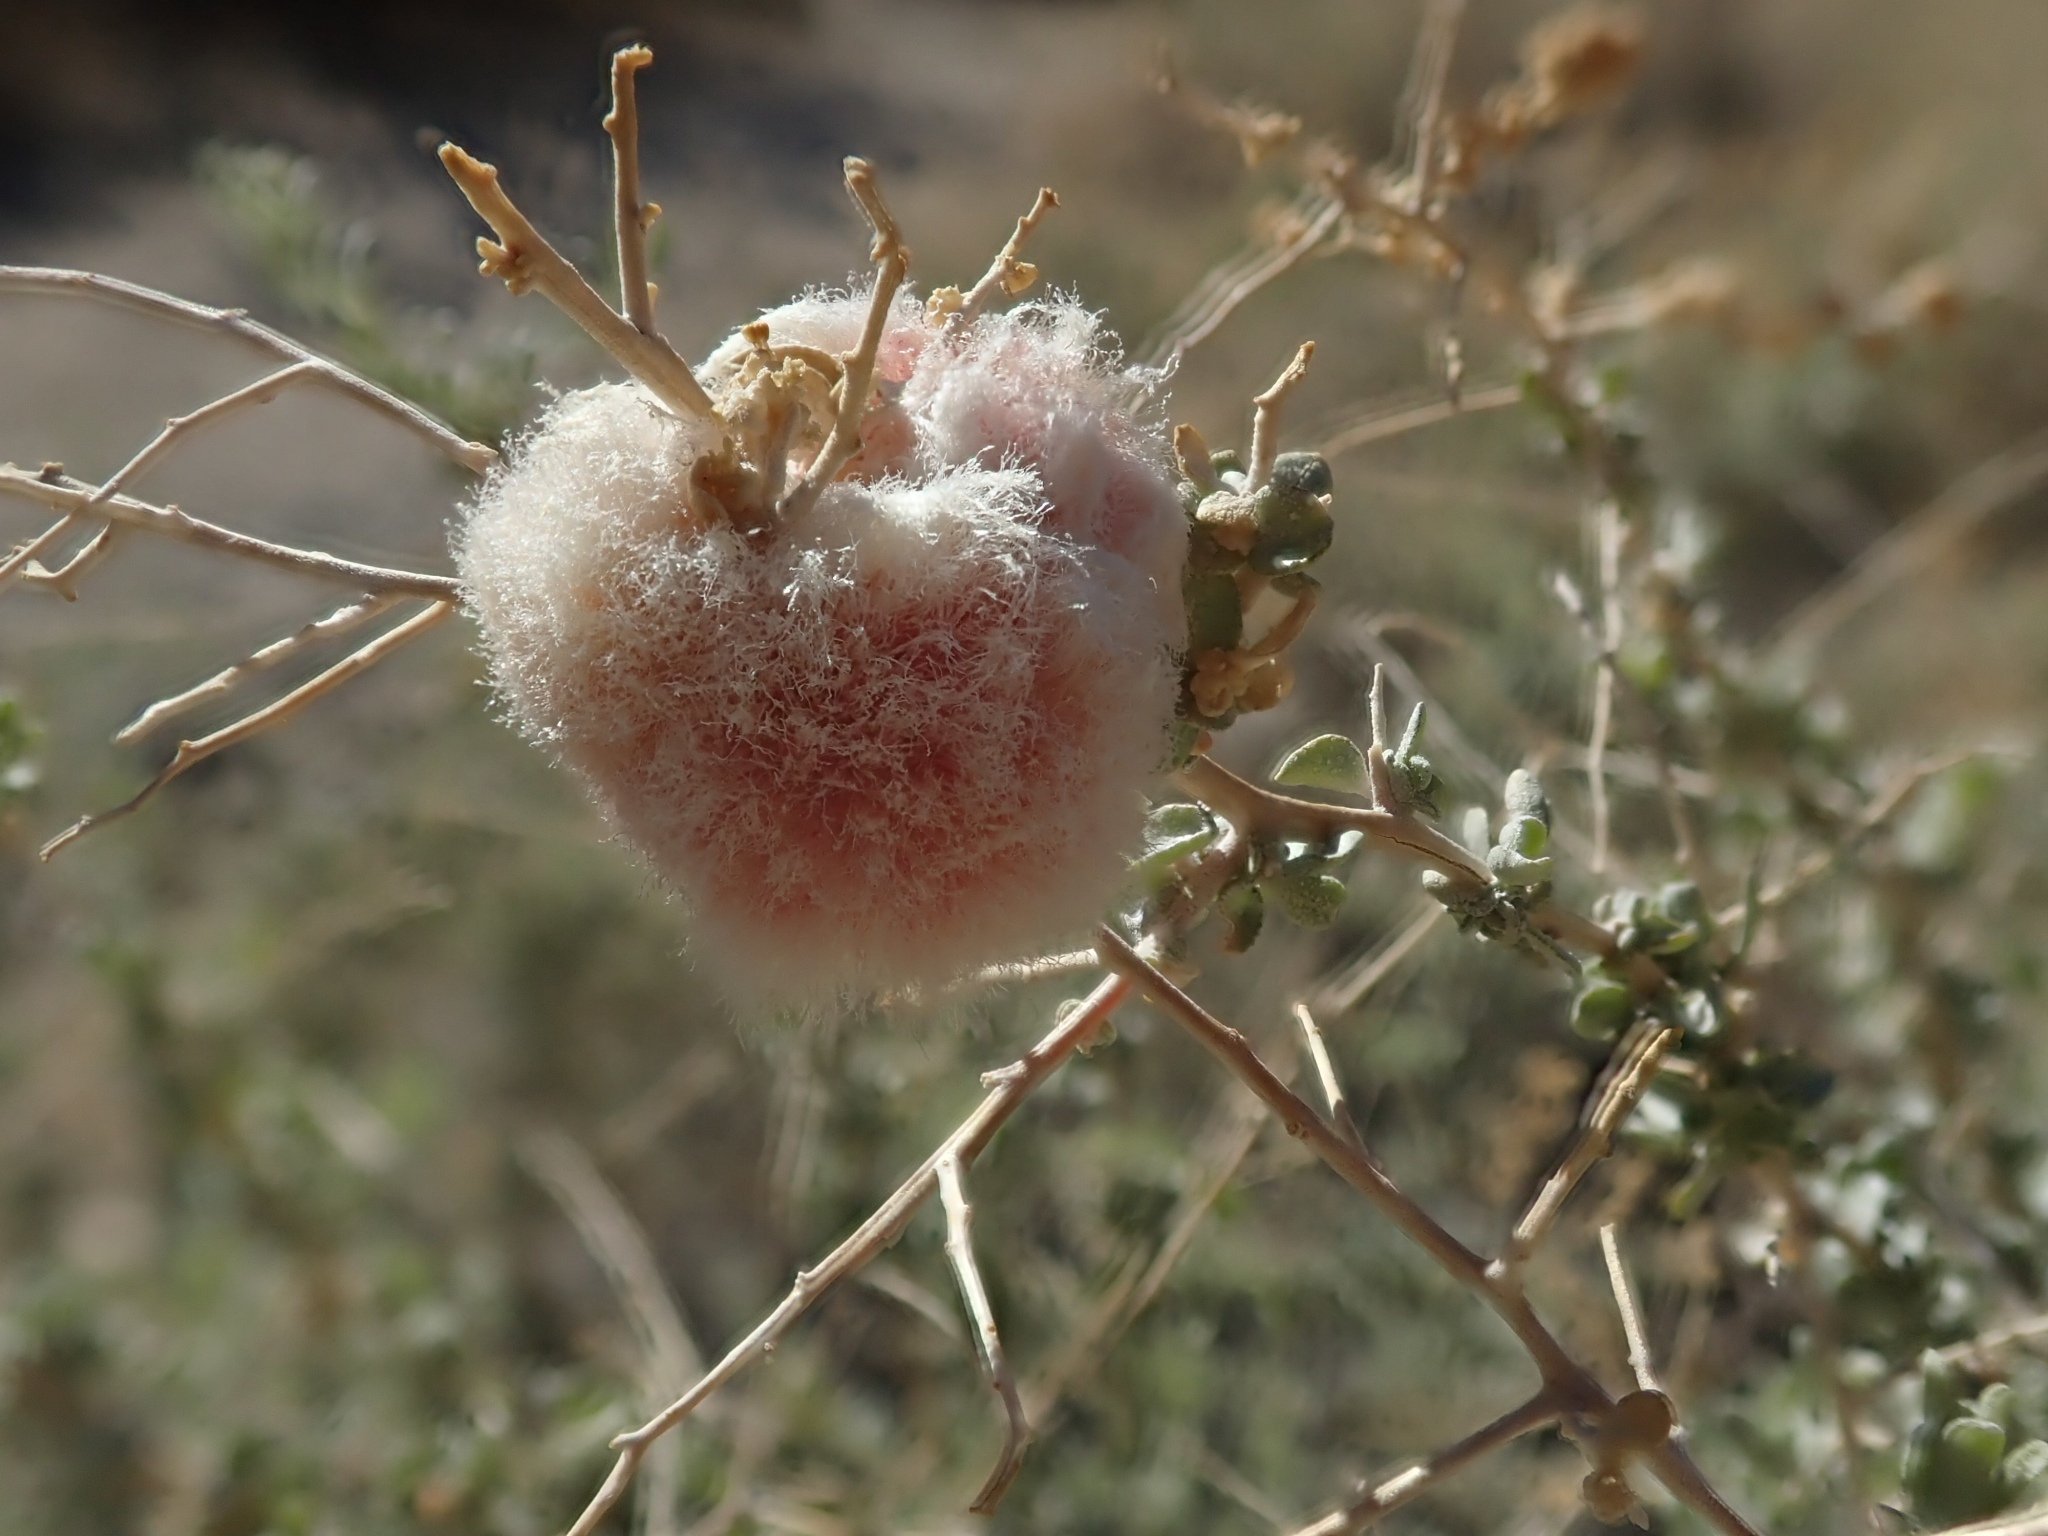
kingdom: Animalia
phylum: Arthropoda
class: Insecta
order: Diptera
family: Cecidomyiidae
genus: Asphondylia
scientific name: Asphondylia floccosa
